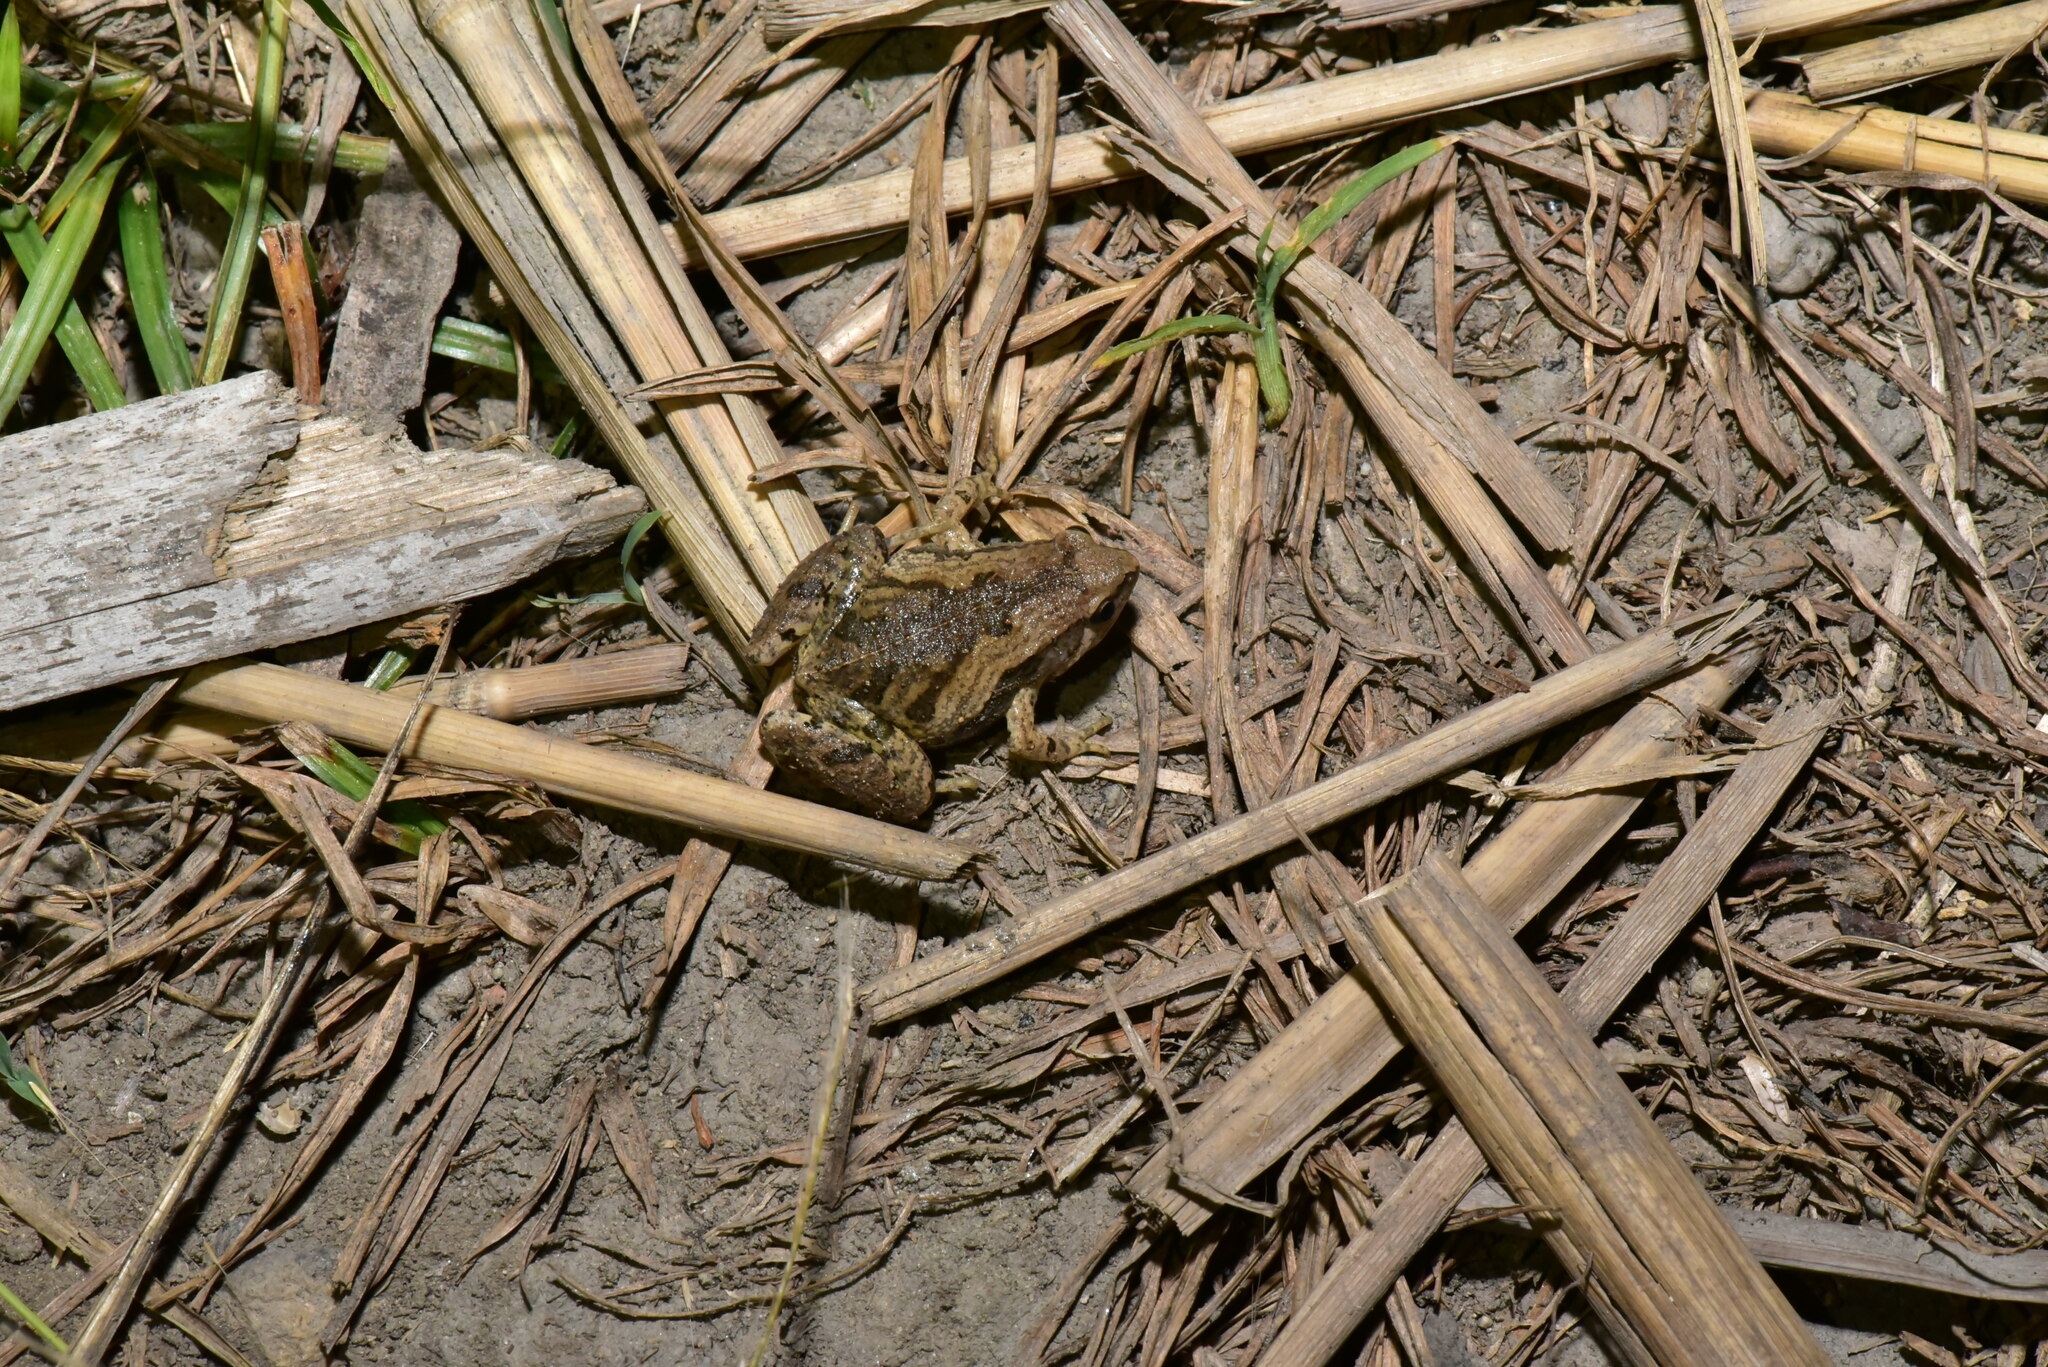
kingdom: Animalia
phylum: Chordata
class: Amphibia
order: Anura
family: Microhylidae
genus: Microhyla
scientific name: Microhyla fissipes
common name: Ornate narrow-mouthed frog
